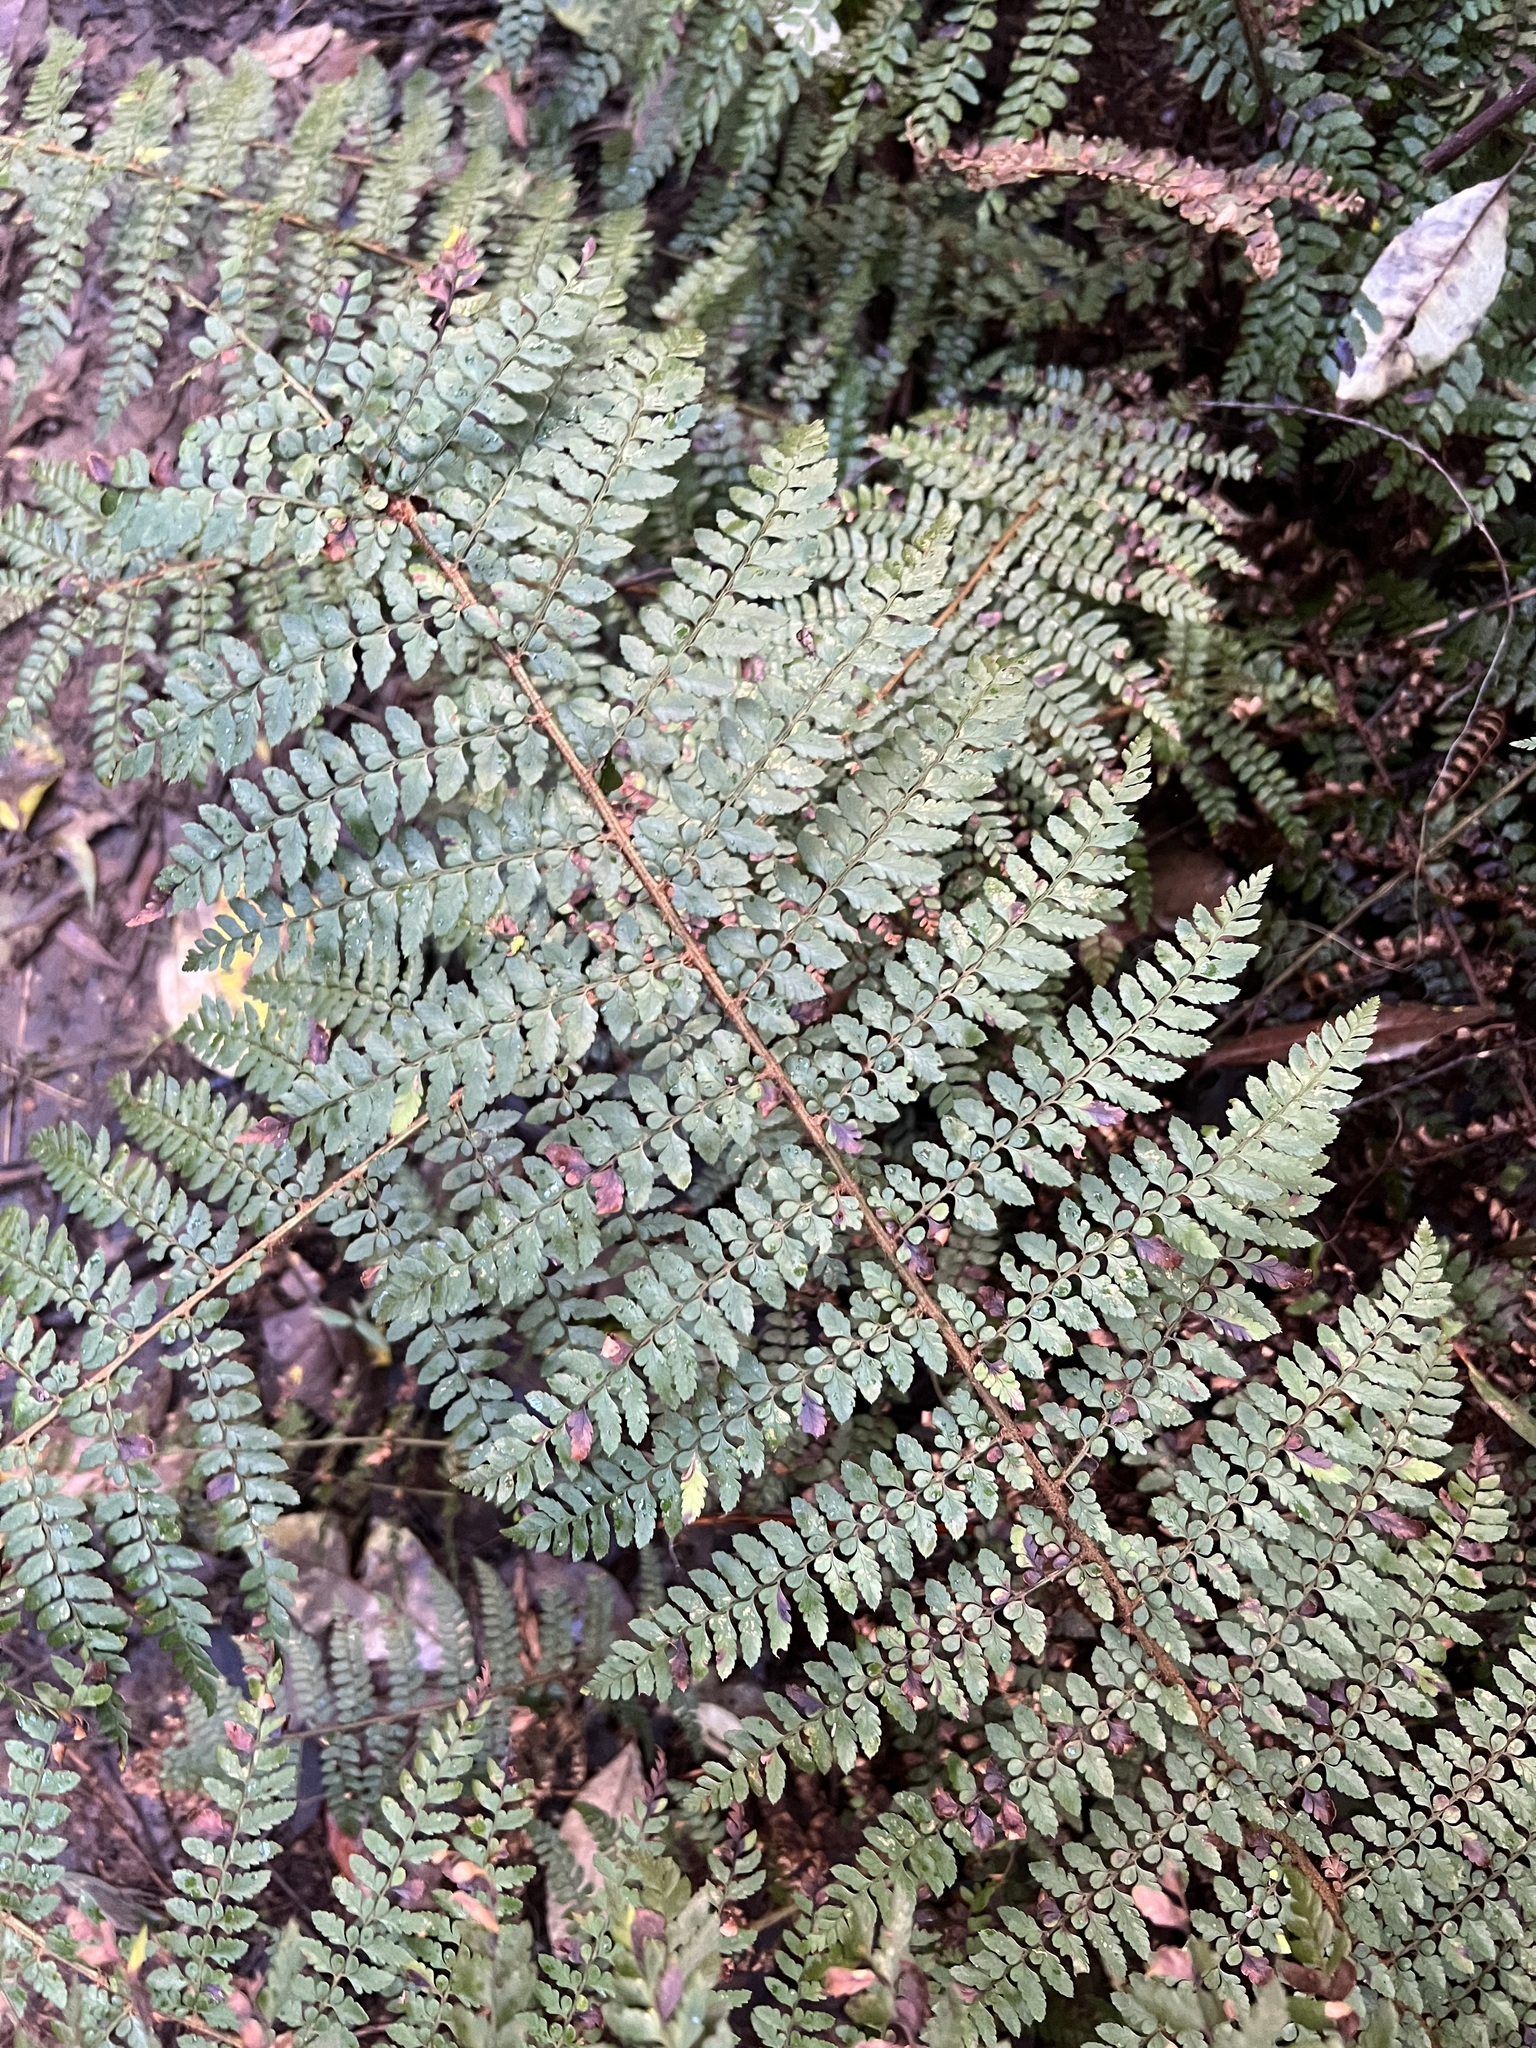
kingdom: Plantae
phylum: Tracheophyta
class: Polypodiopsida
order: Polypodiales
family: Dryopteridaceae
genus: Polystichum
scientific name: Polystichum proliferum
